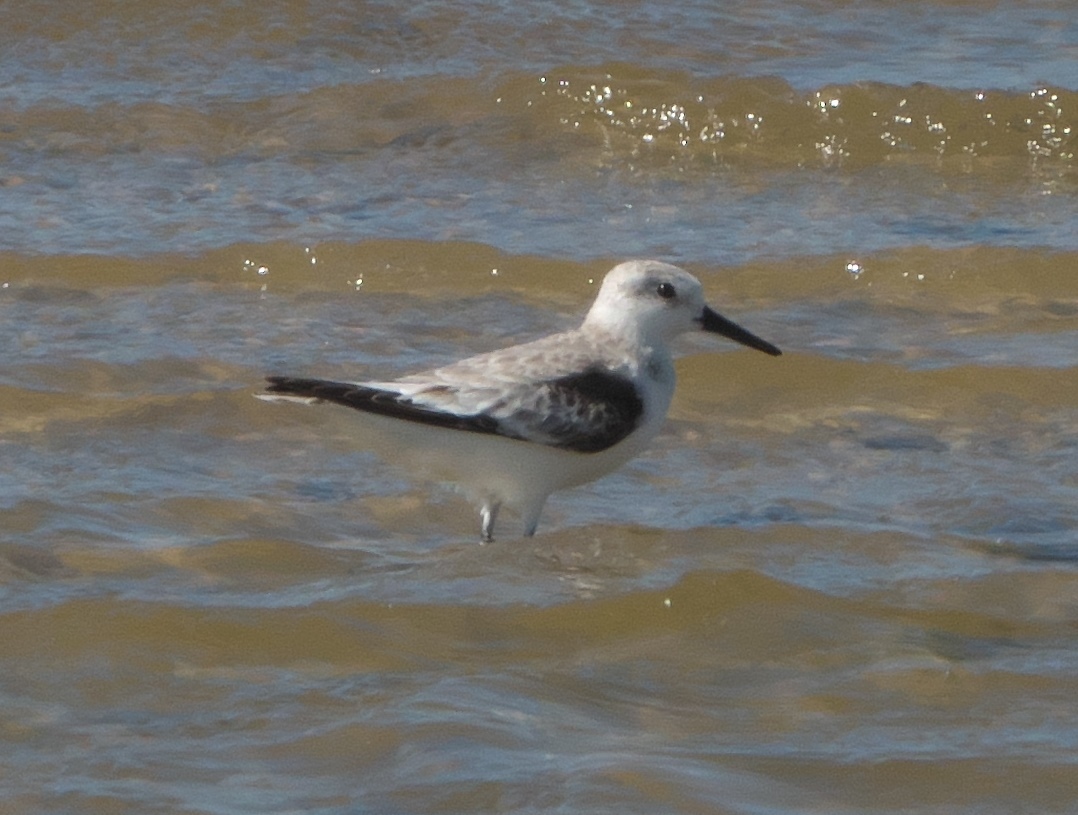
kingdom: Animalia
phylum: Chordata
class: Aves
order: Charadriiformes
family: Scolopacidae
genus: Calidris
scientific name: Calidris alba
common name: Sanderling
